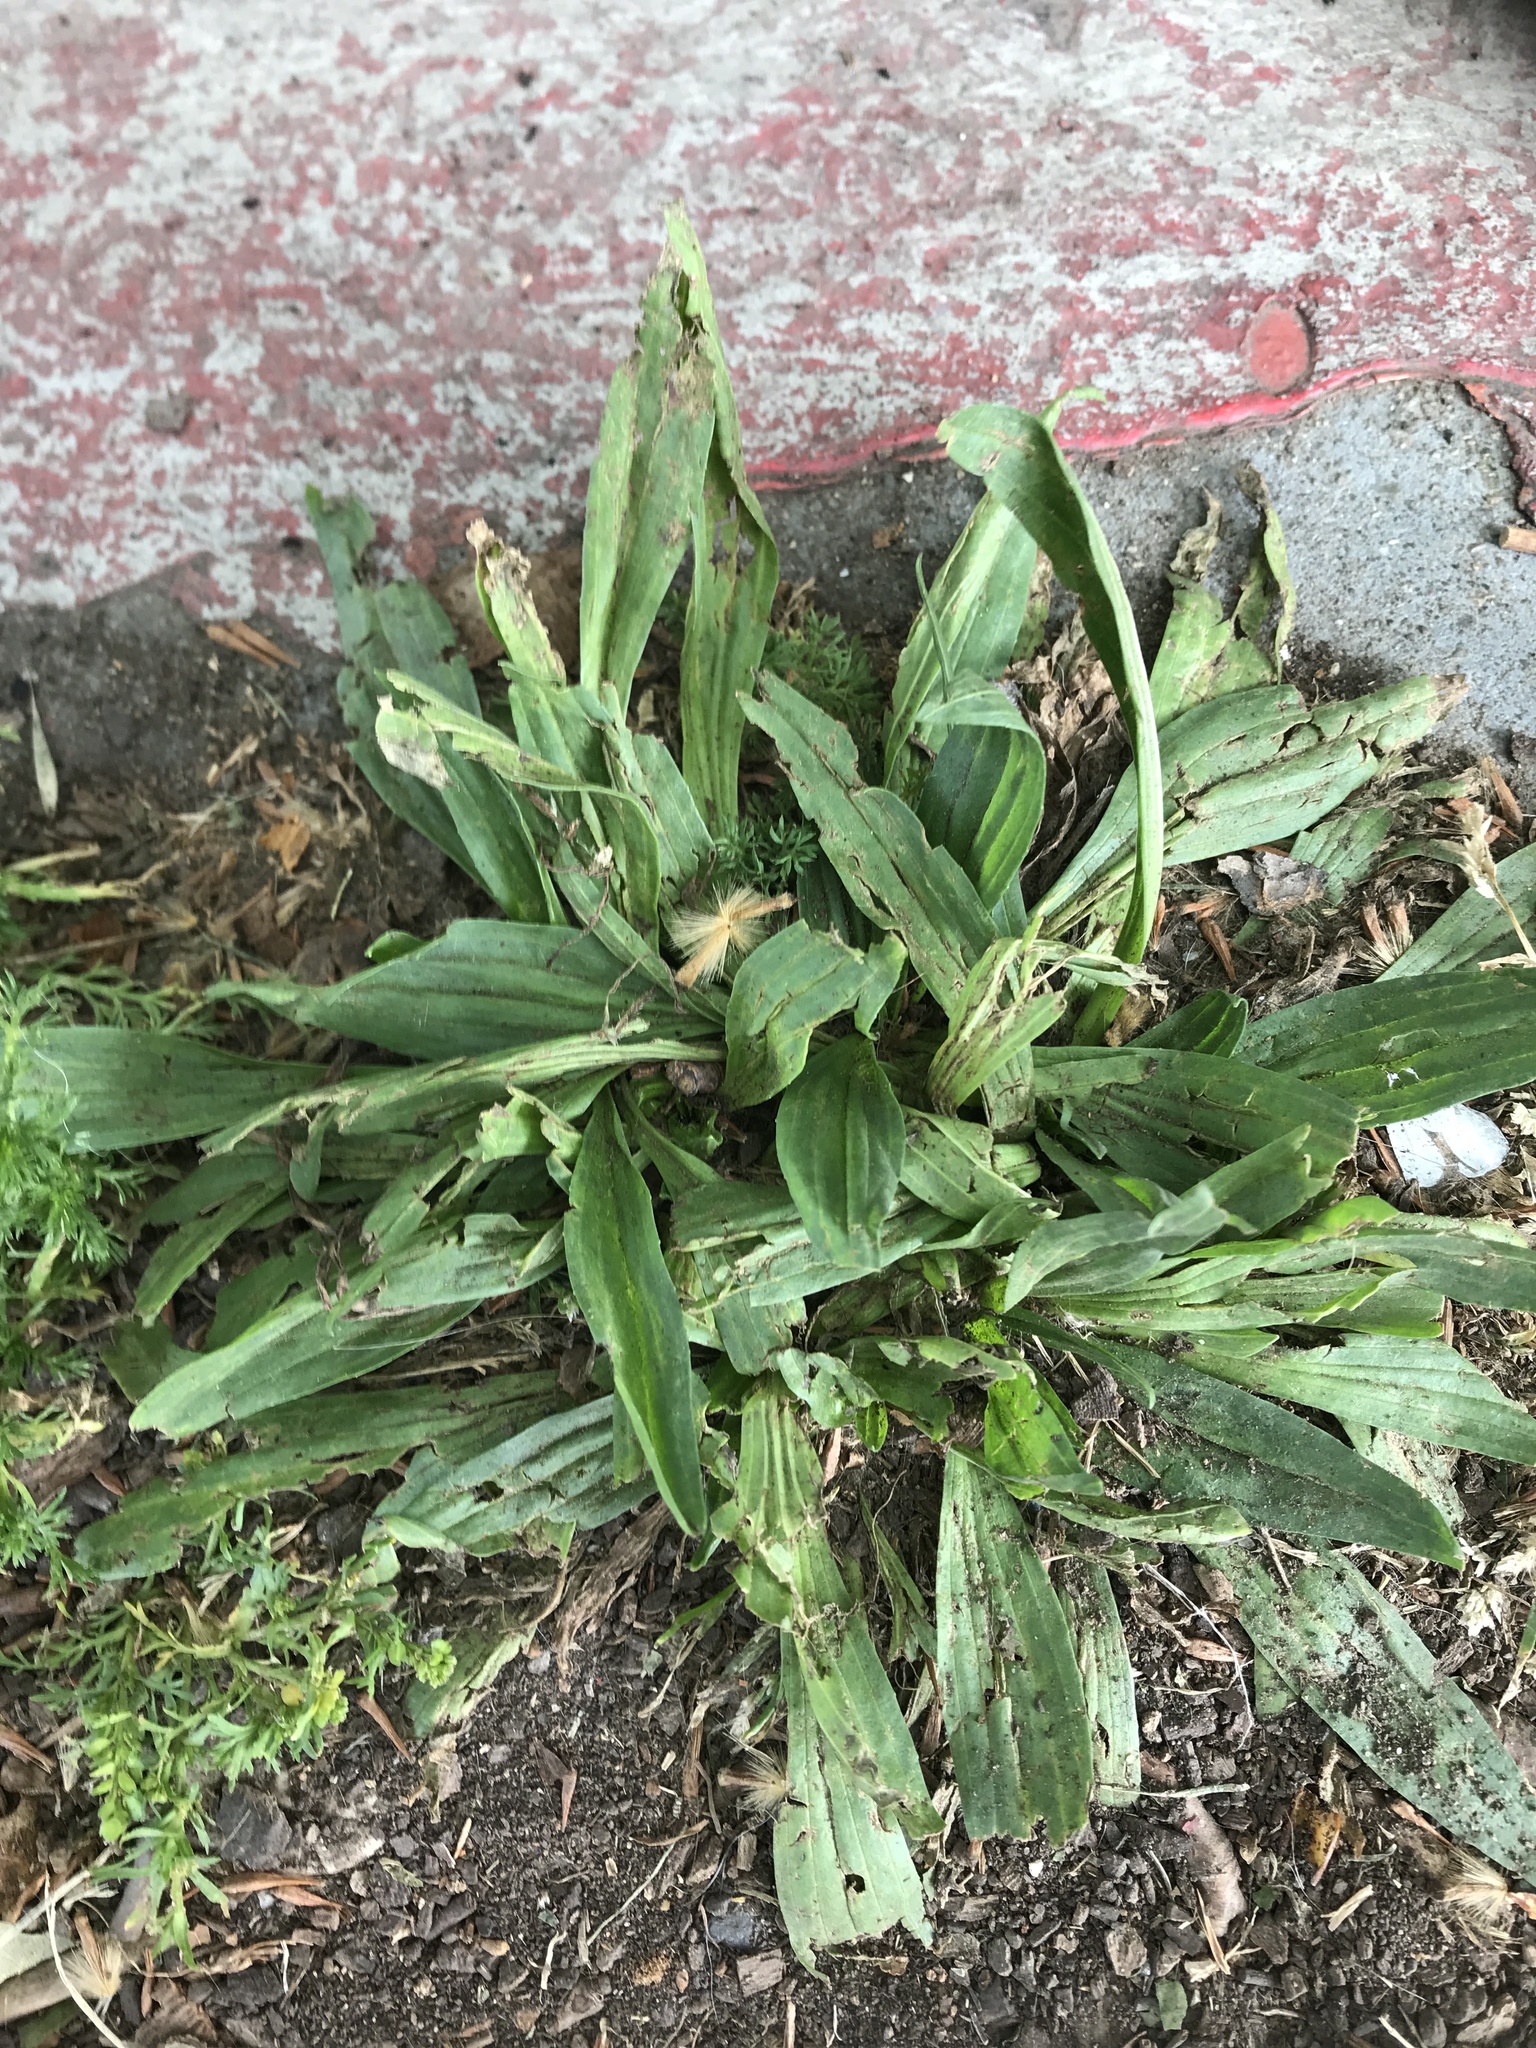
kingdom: Plantae
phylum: Tracheophyta
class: Magnoliopsida
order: Lamiales
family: Plantaginaceae
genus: Plantago
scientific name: Plantago lanceolata
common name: Ribwort plantain
